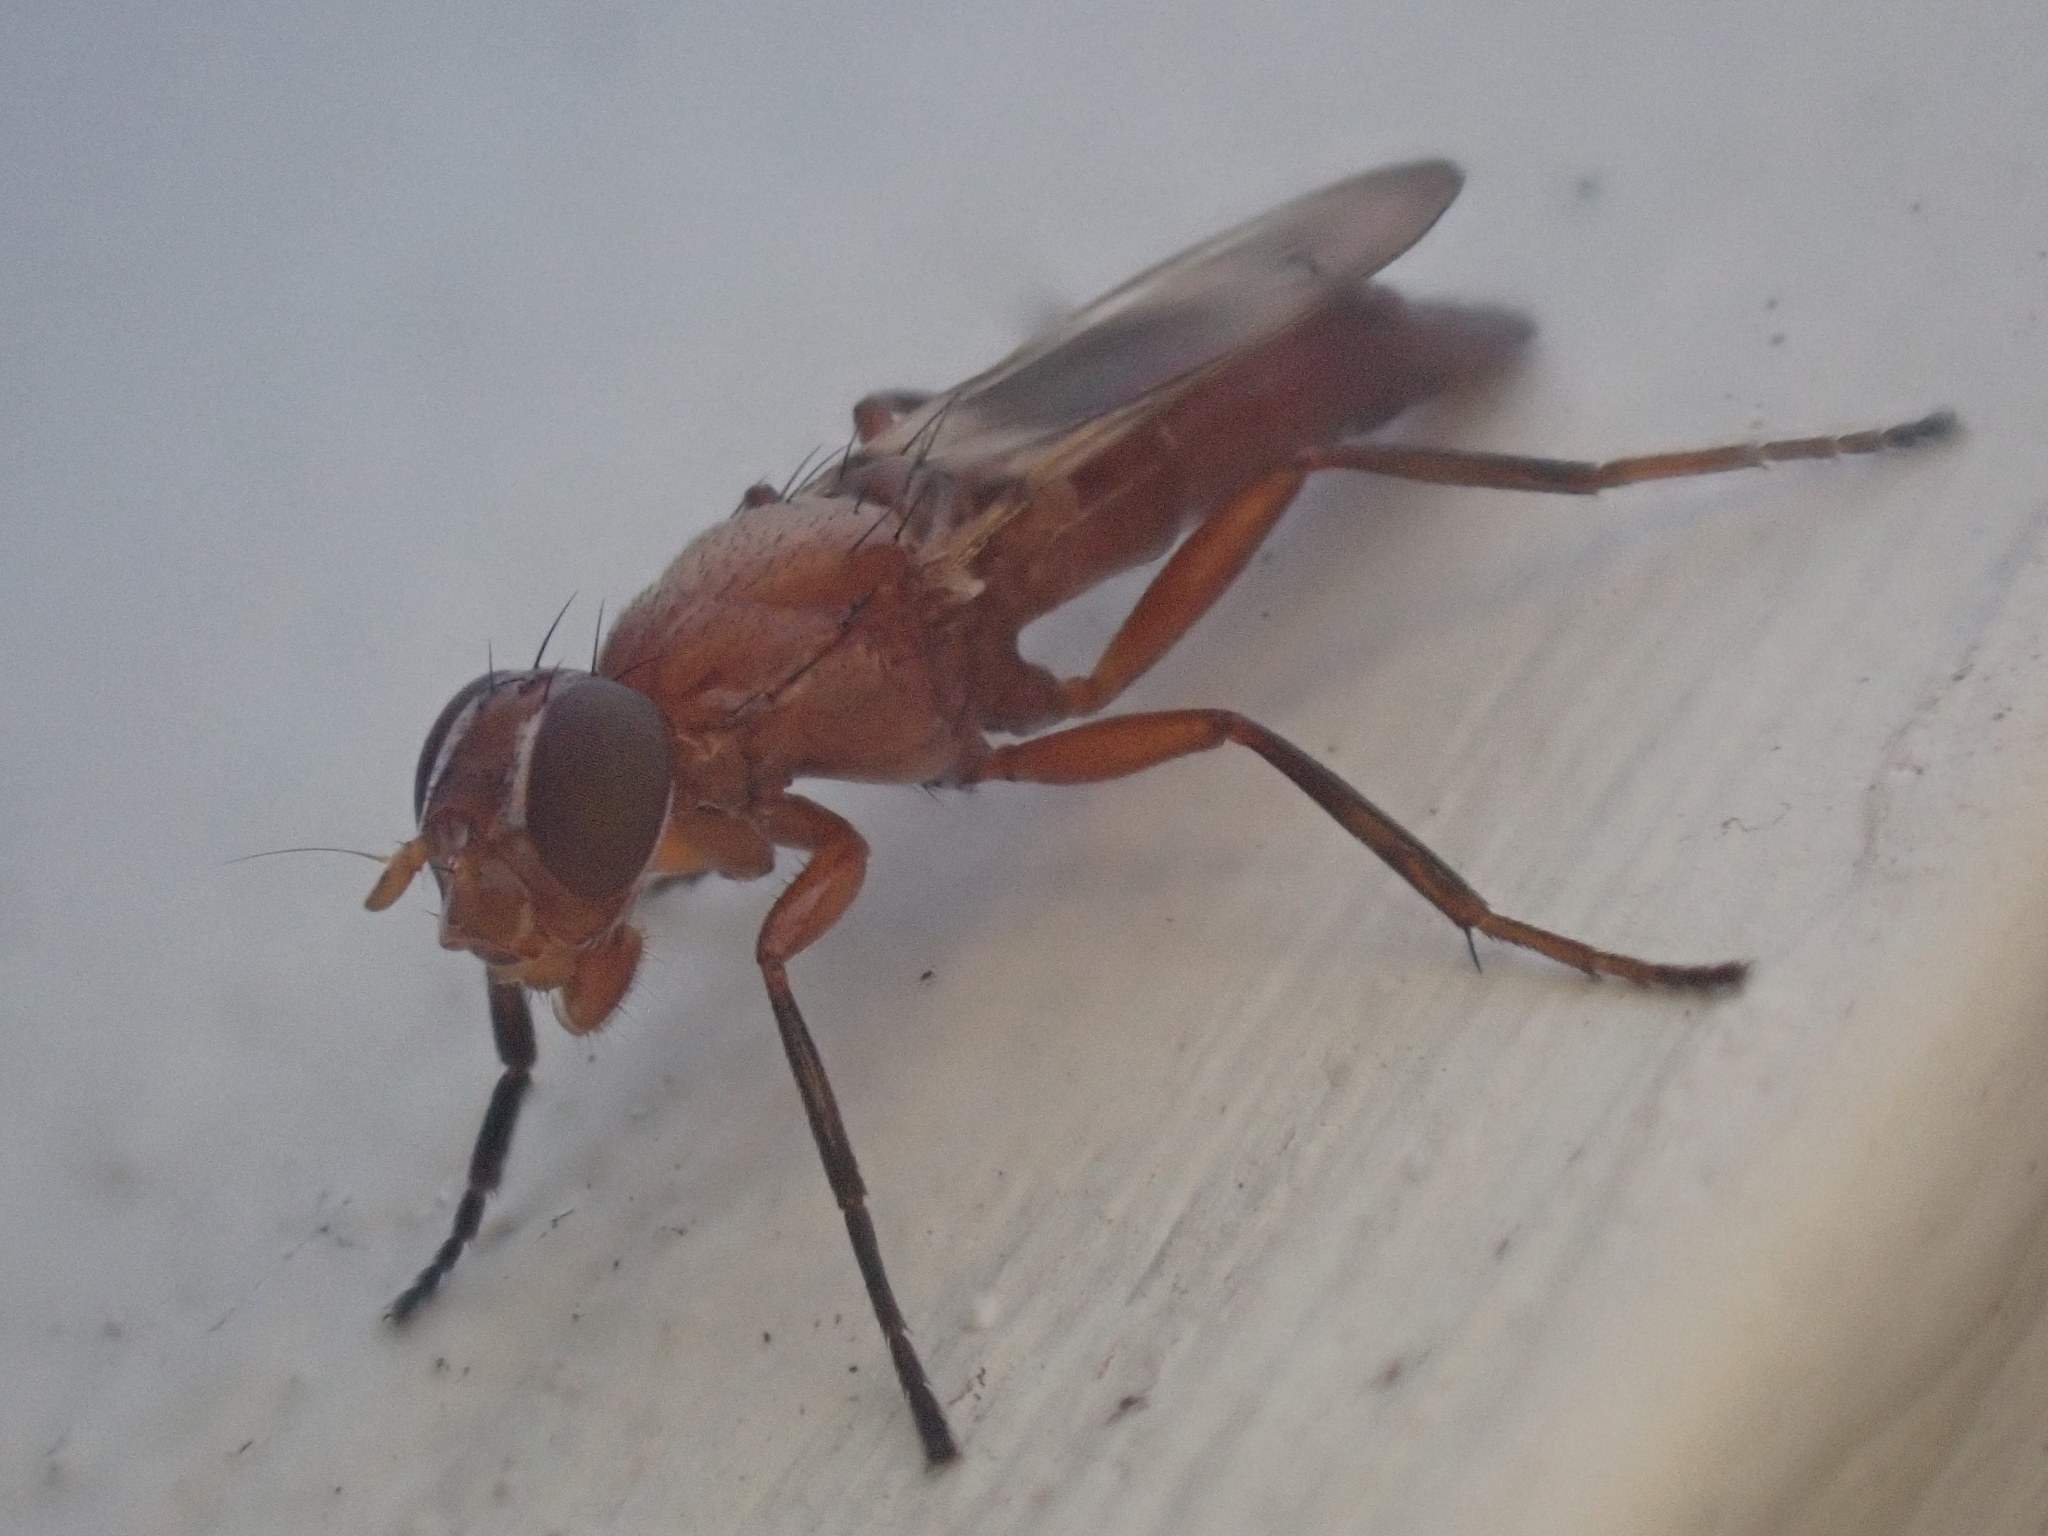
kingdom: Animalia
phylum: Arthropoda
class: Insecta
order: Diptera
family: Ulidiidae
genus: Zacompsia
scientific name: Zacompsia fulva
